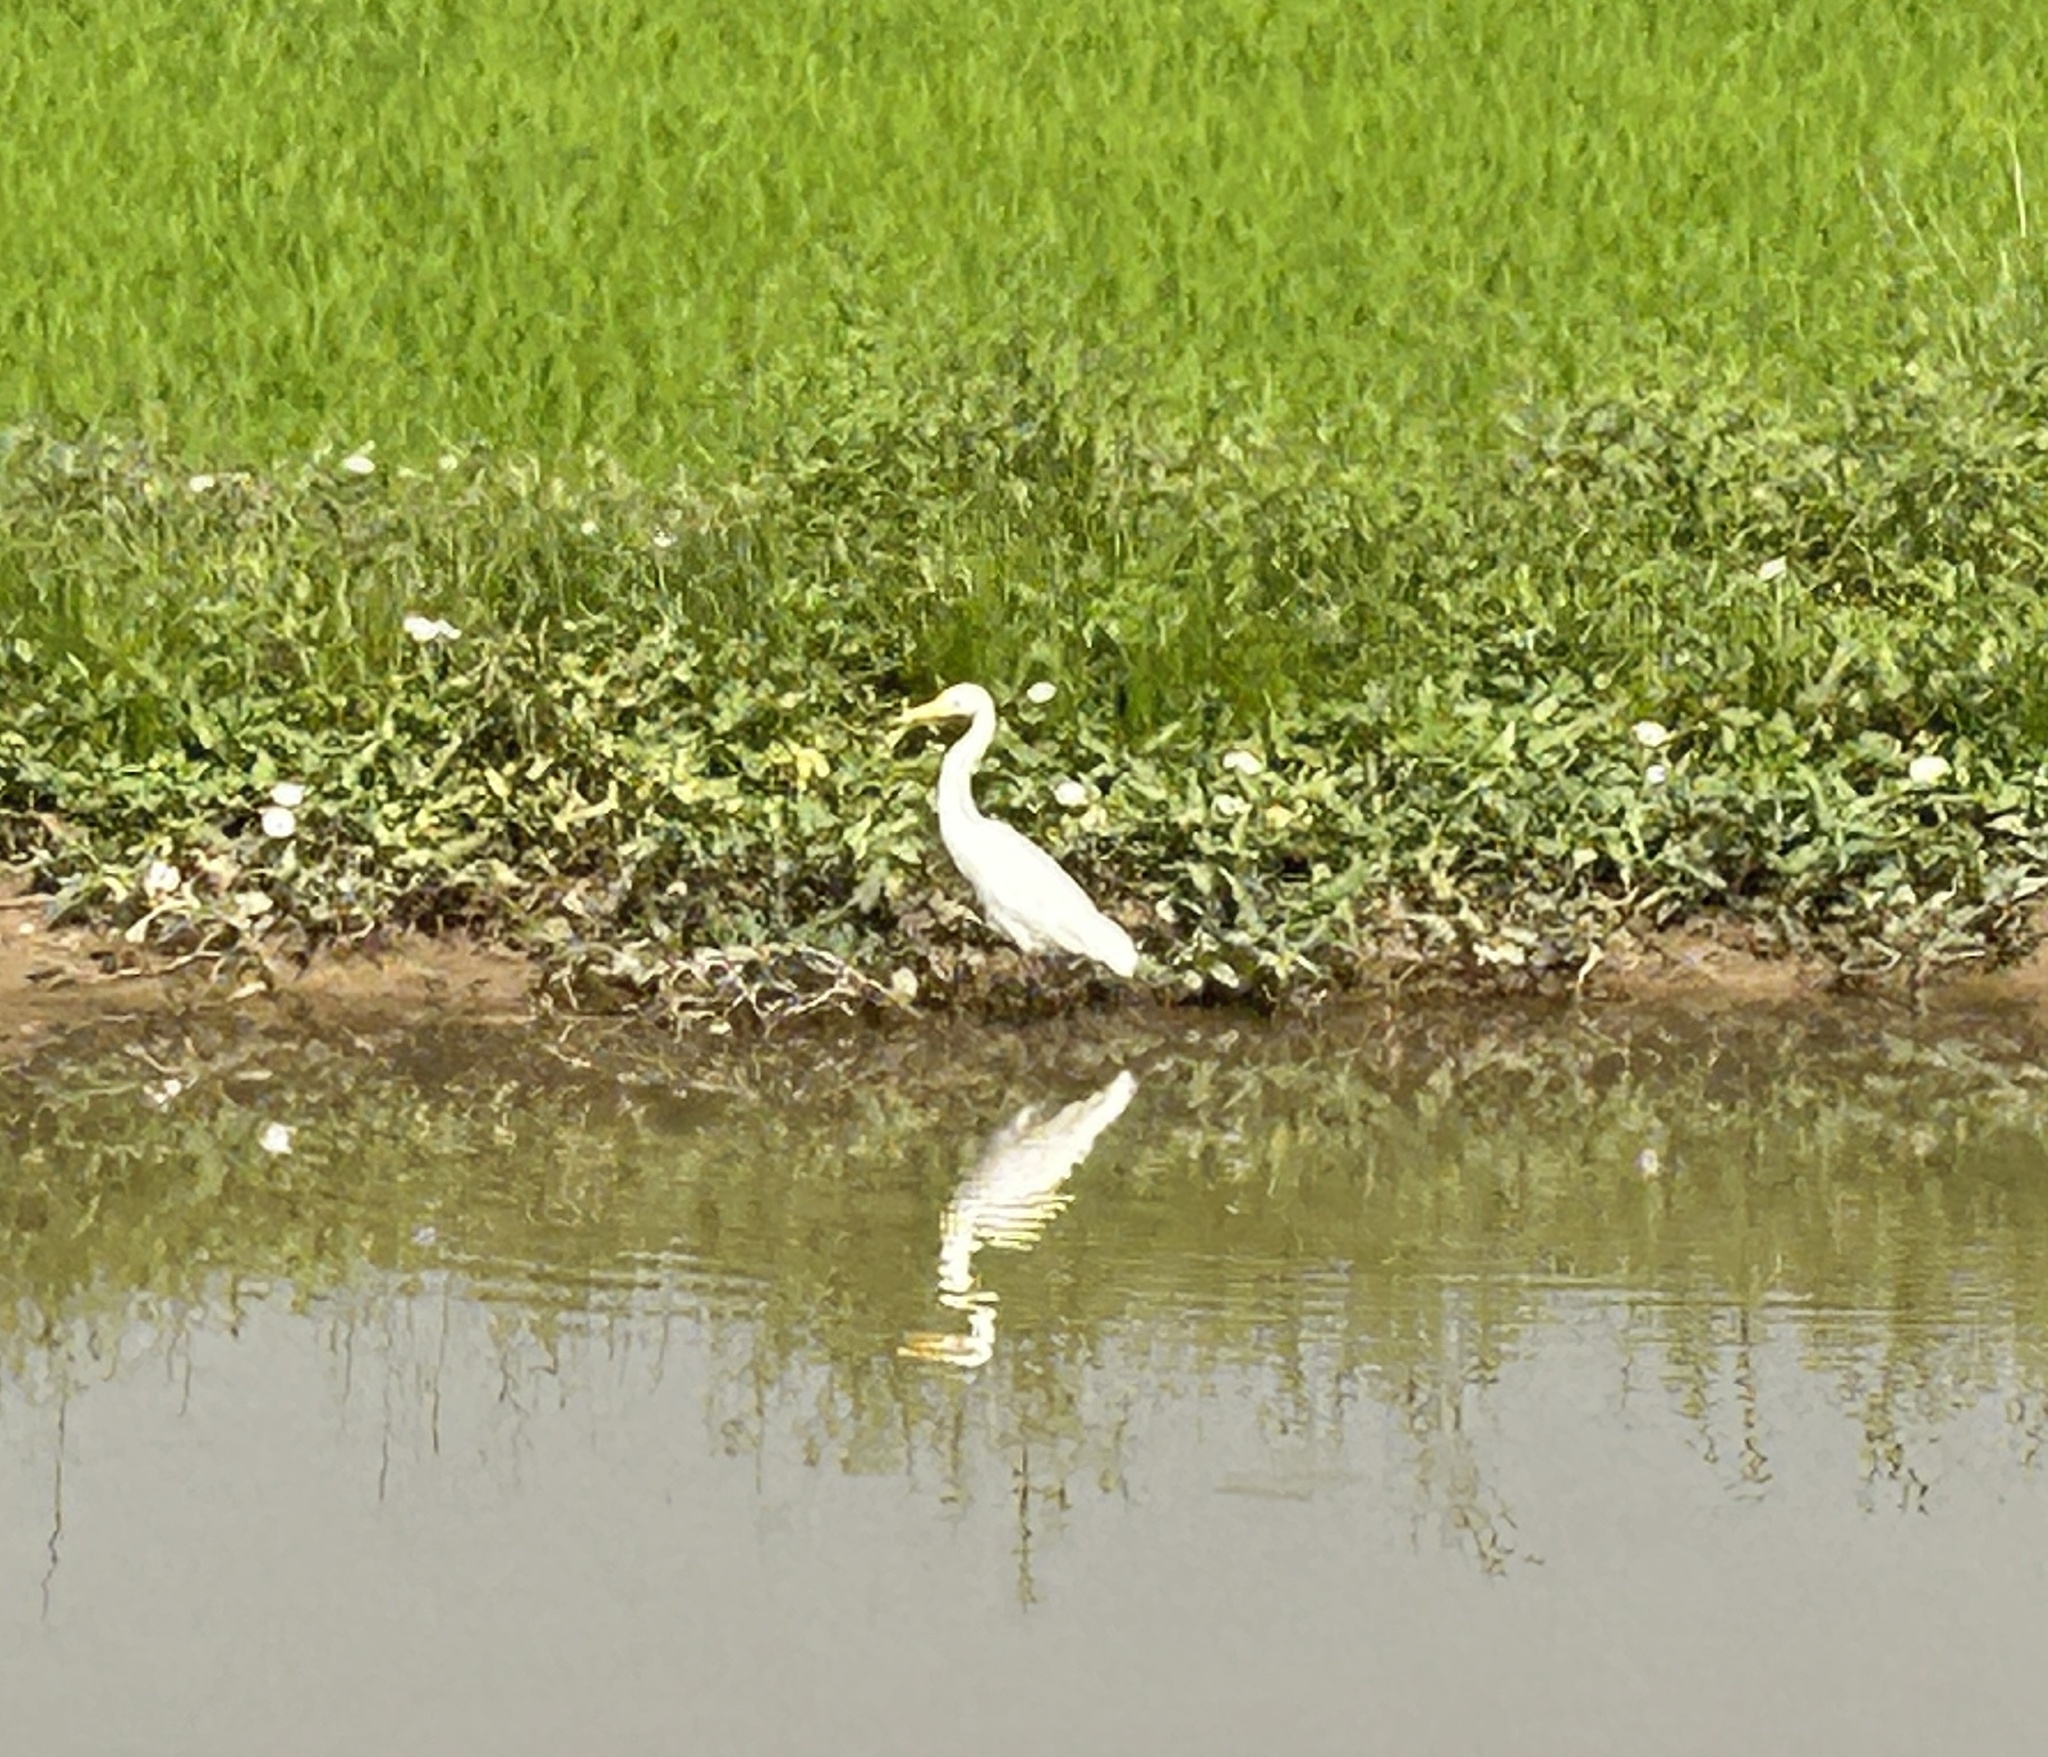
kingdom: Animalia
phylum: Chordata
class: Aves
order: Pelecaniformes
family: Ardeidae
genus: Egretta
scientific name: Egretta intermedia
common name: Intermediate egret
